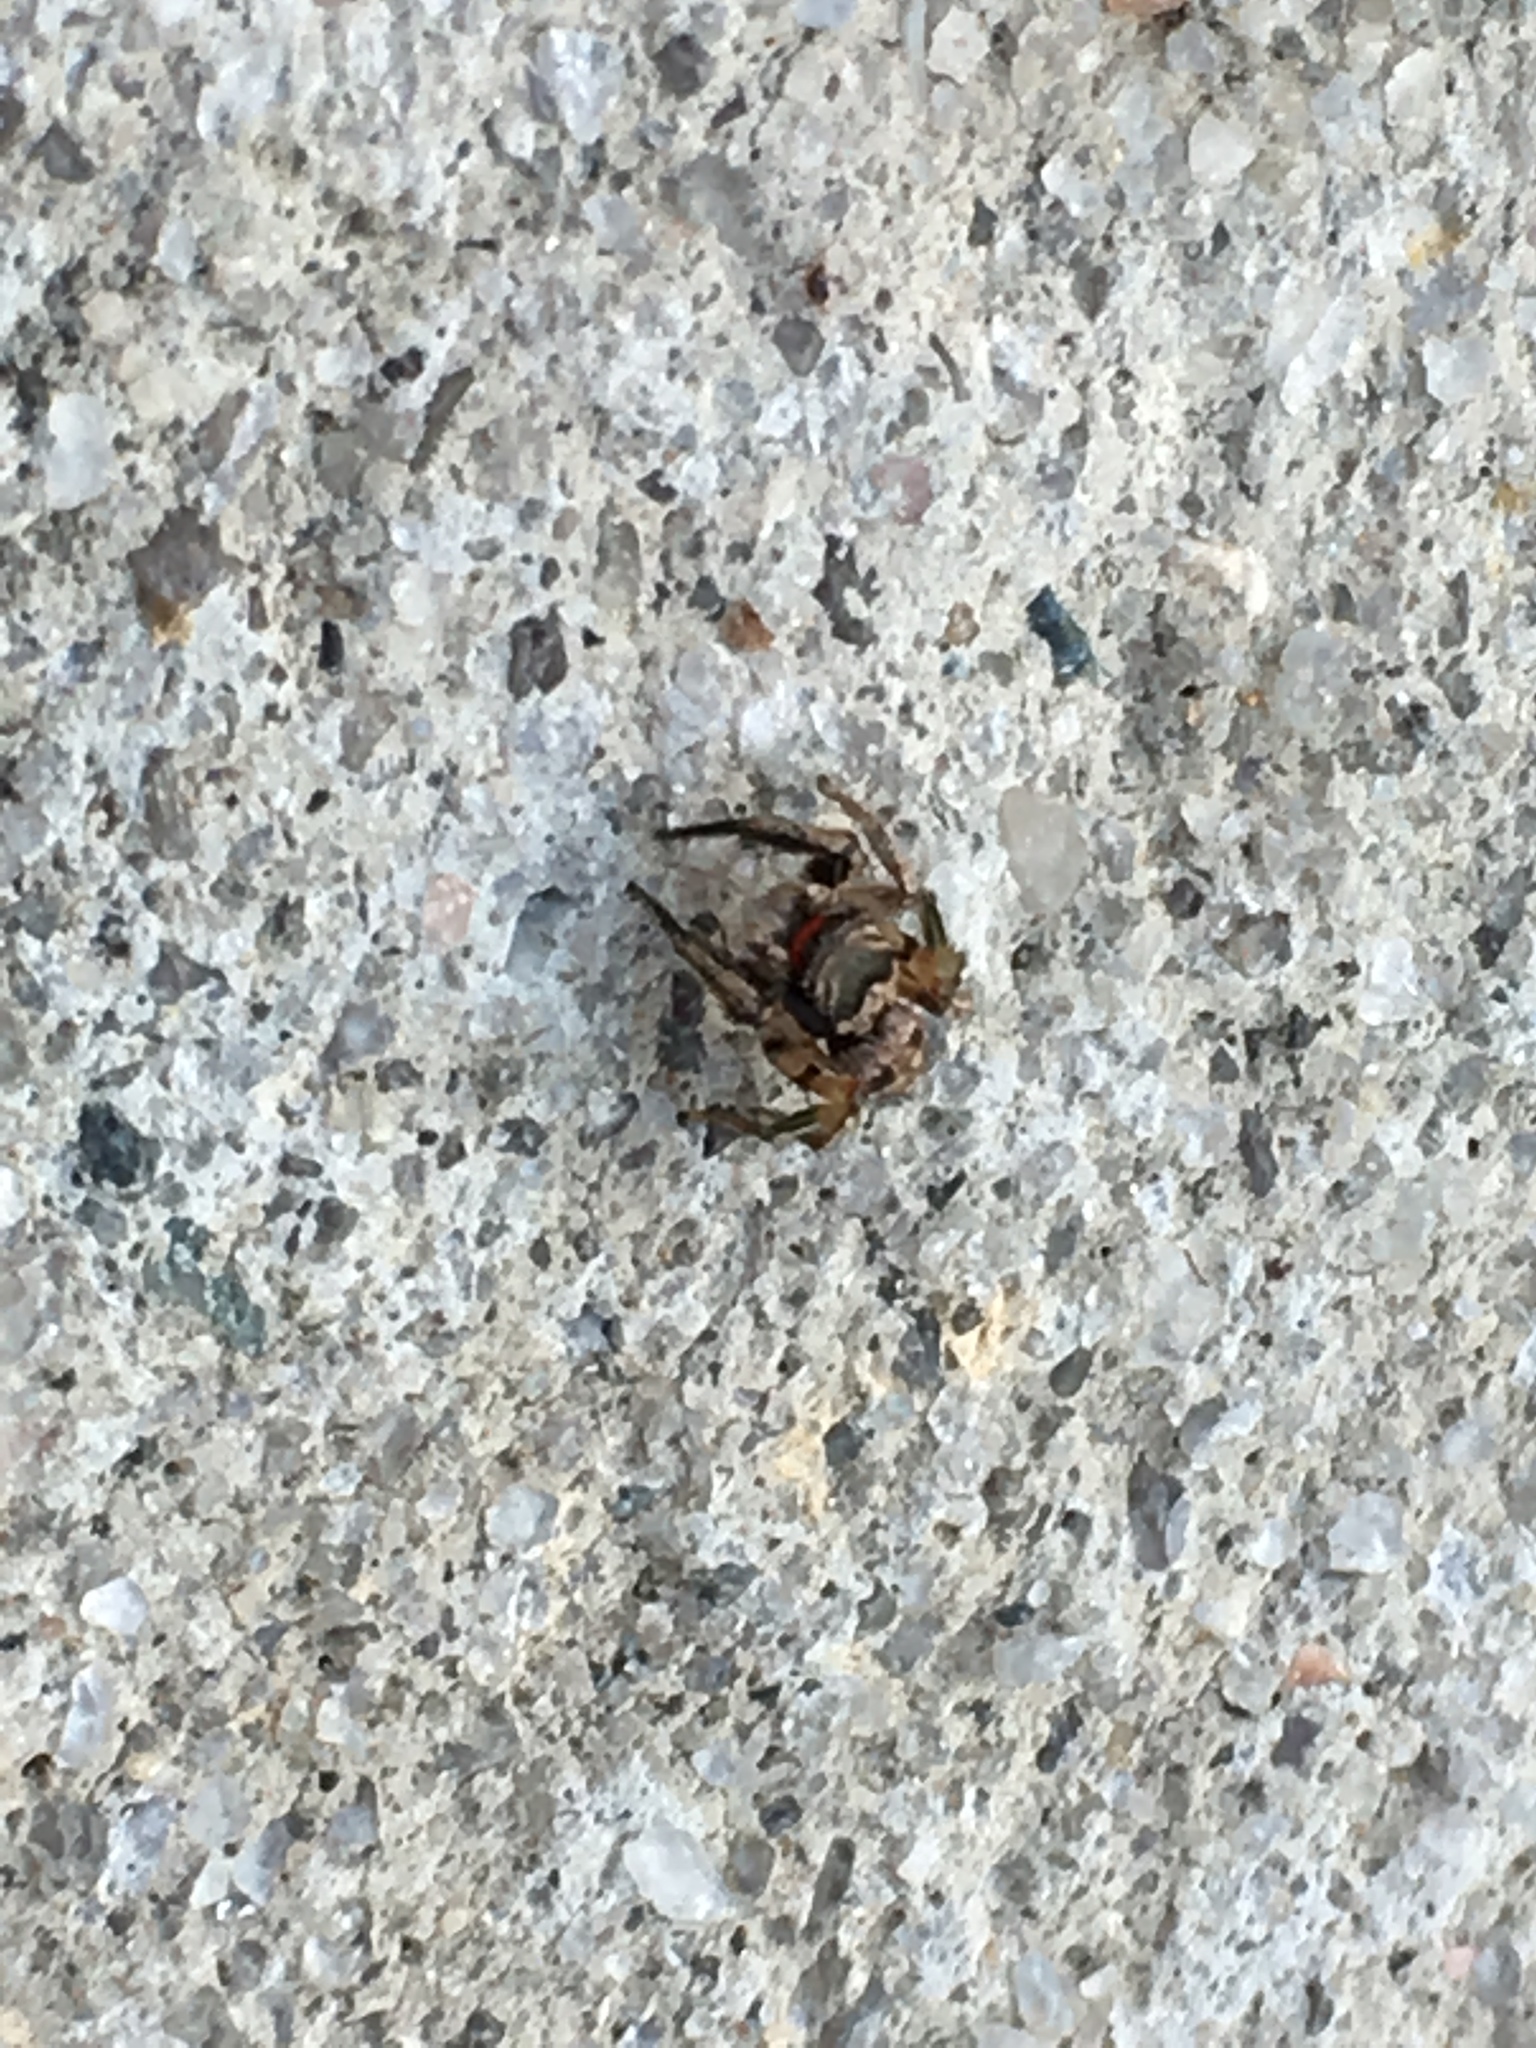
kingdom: Animalia
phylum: Arthropoda
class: Arachnida
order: Araneae
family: Salticidae
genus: Habronattus
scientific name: Habronattus coecatus
